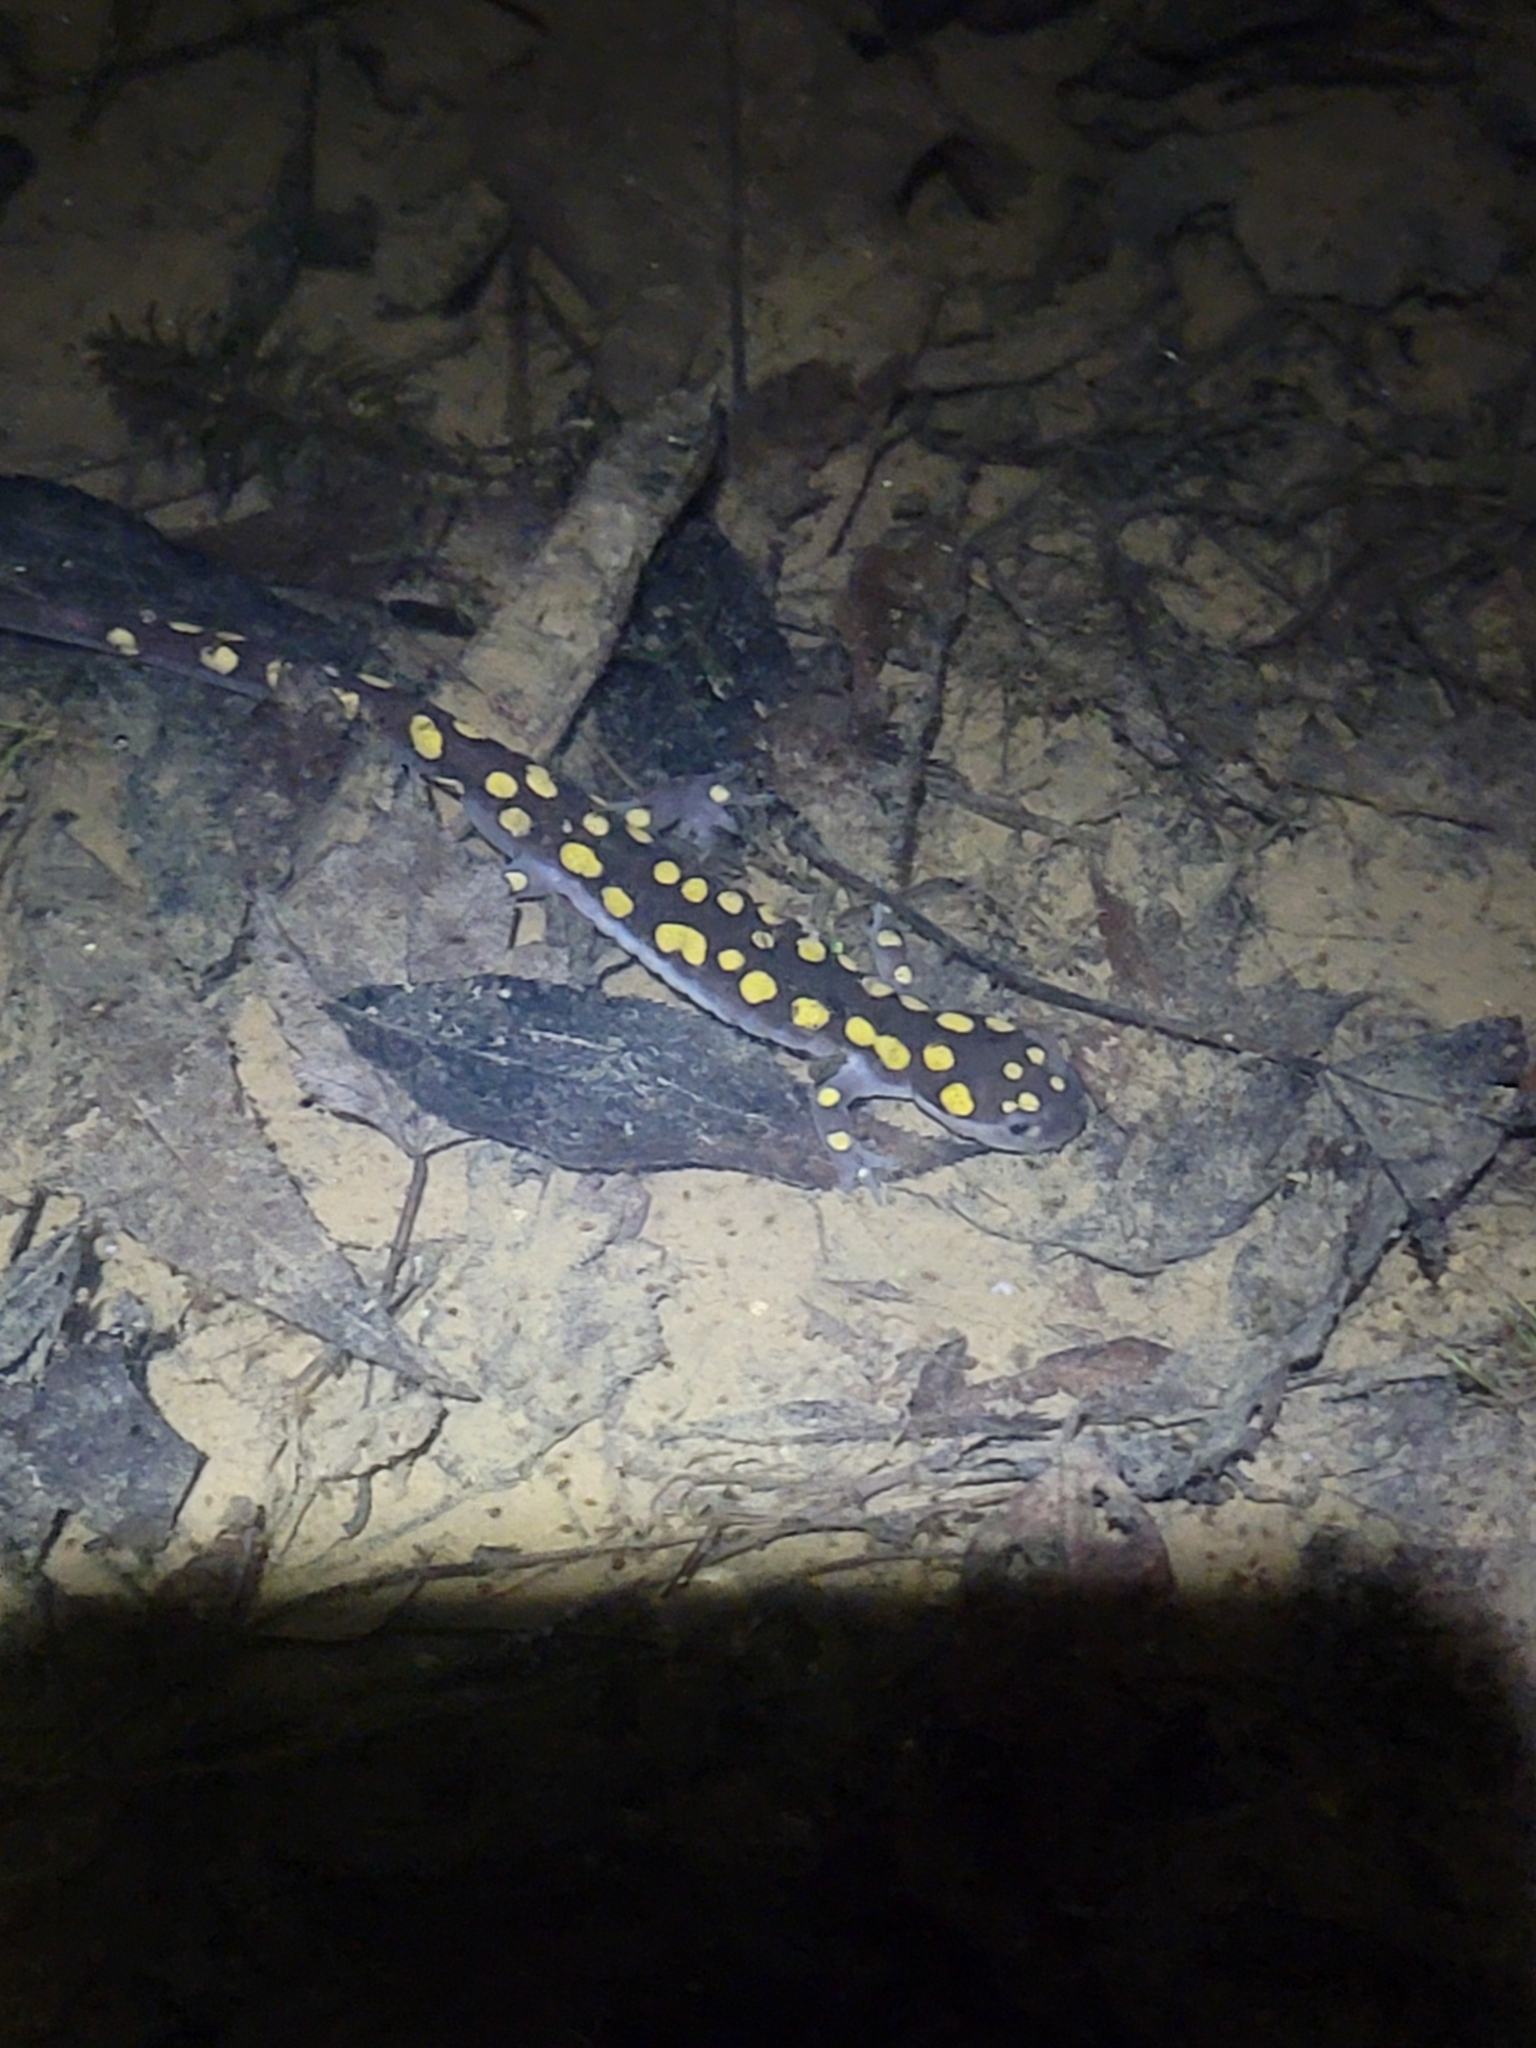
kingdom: Animalia
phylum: Chordata
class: Amphibia
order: Caudata
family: Ambystomatidae
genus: Ambystoma
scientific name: Ambystoma maculatum
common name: Spotted salamander
